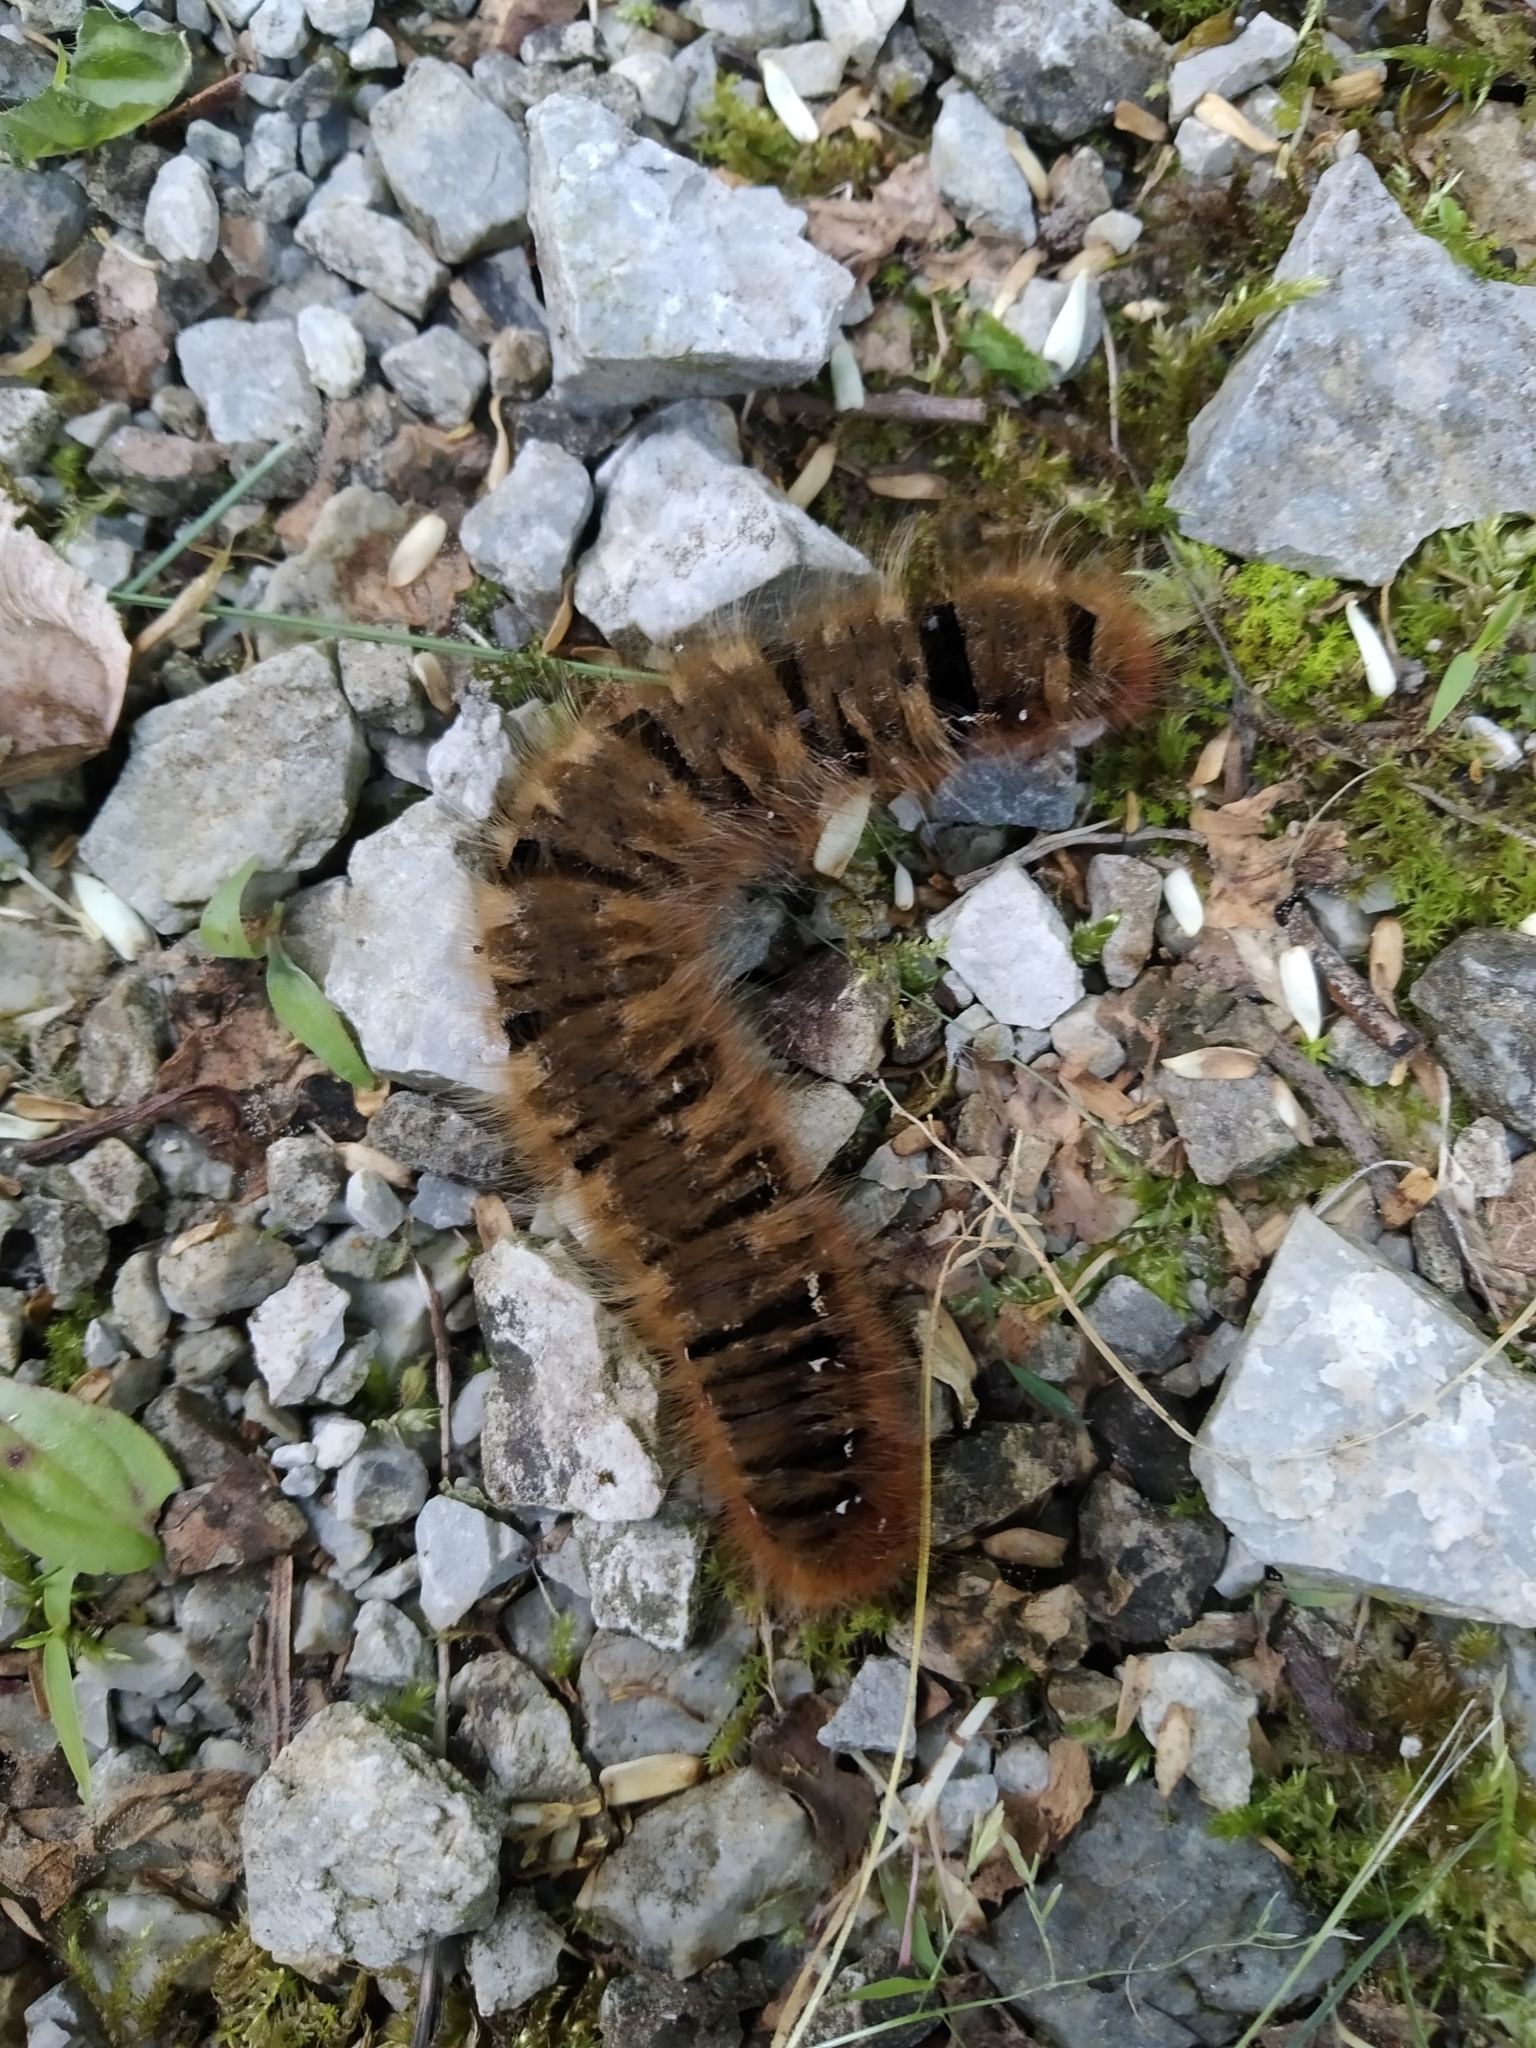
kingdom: Animalia
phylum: Arthropoda
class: Insecta
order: Lepidoptera
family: Lasiocampidae
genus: Lasiocampa
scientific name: Lasiocampa quercus
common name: Oak eggar
